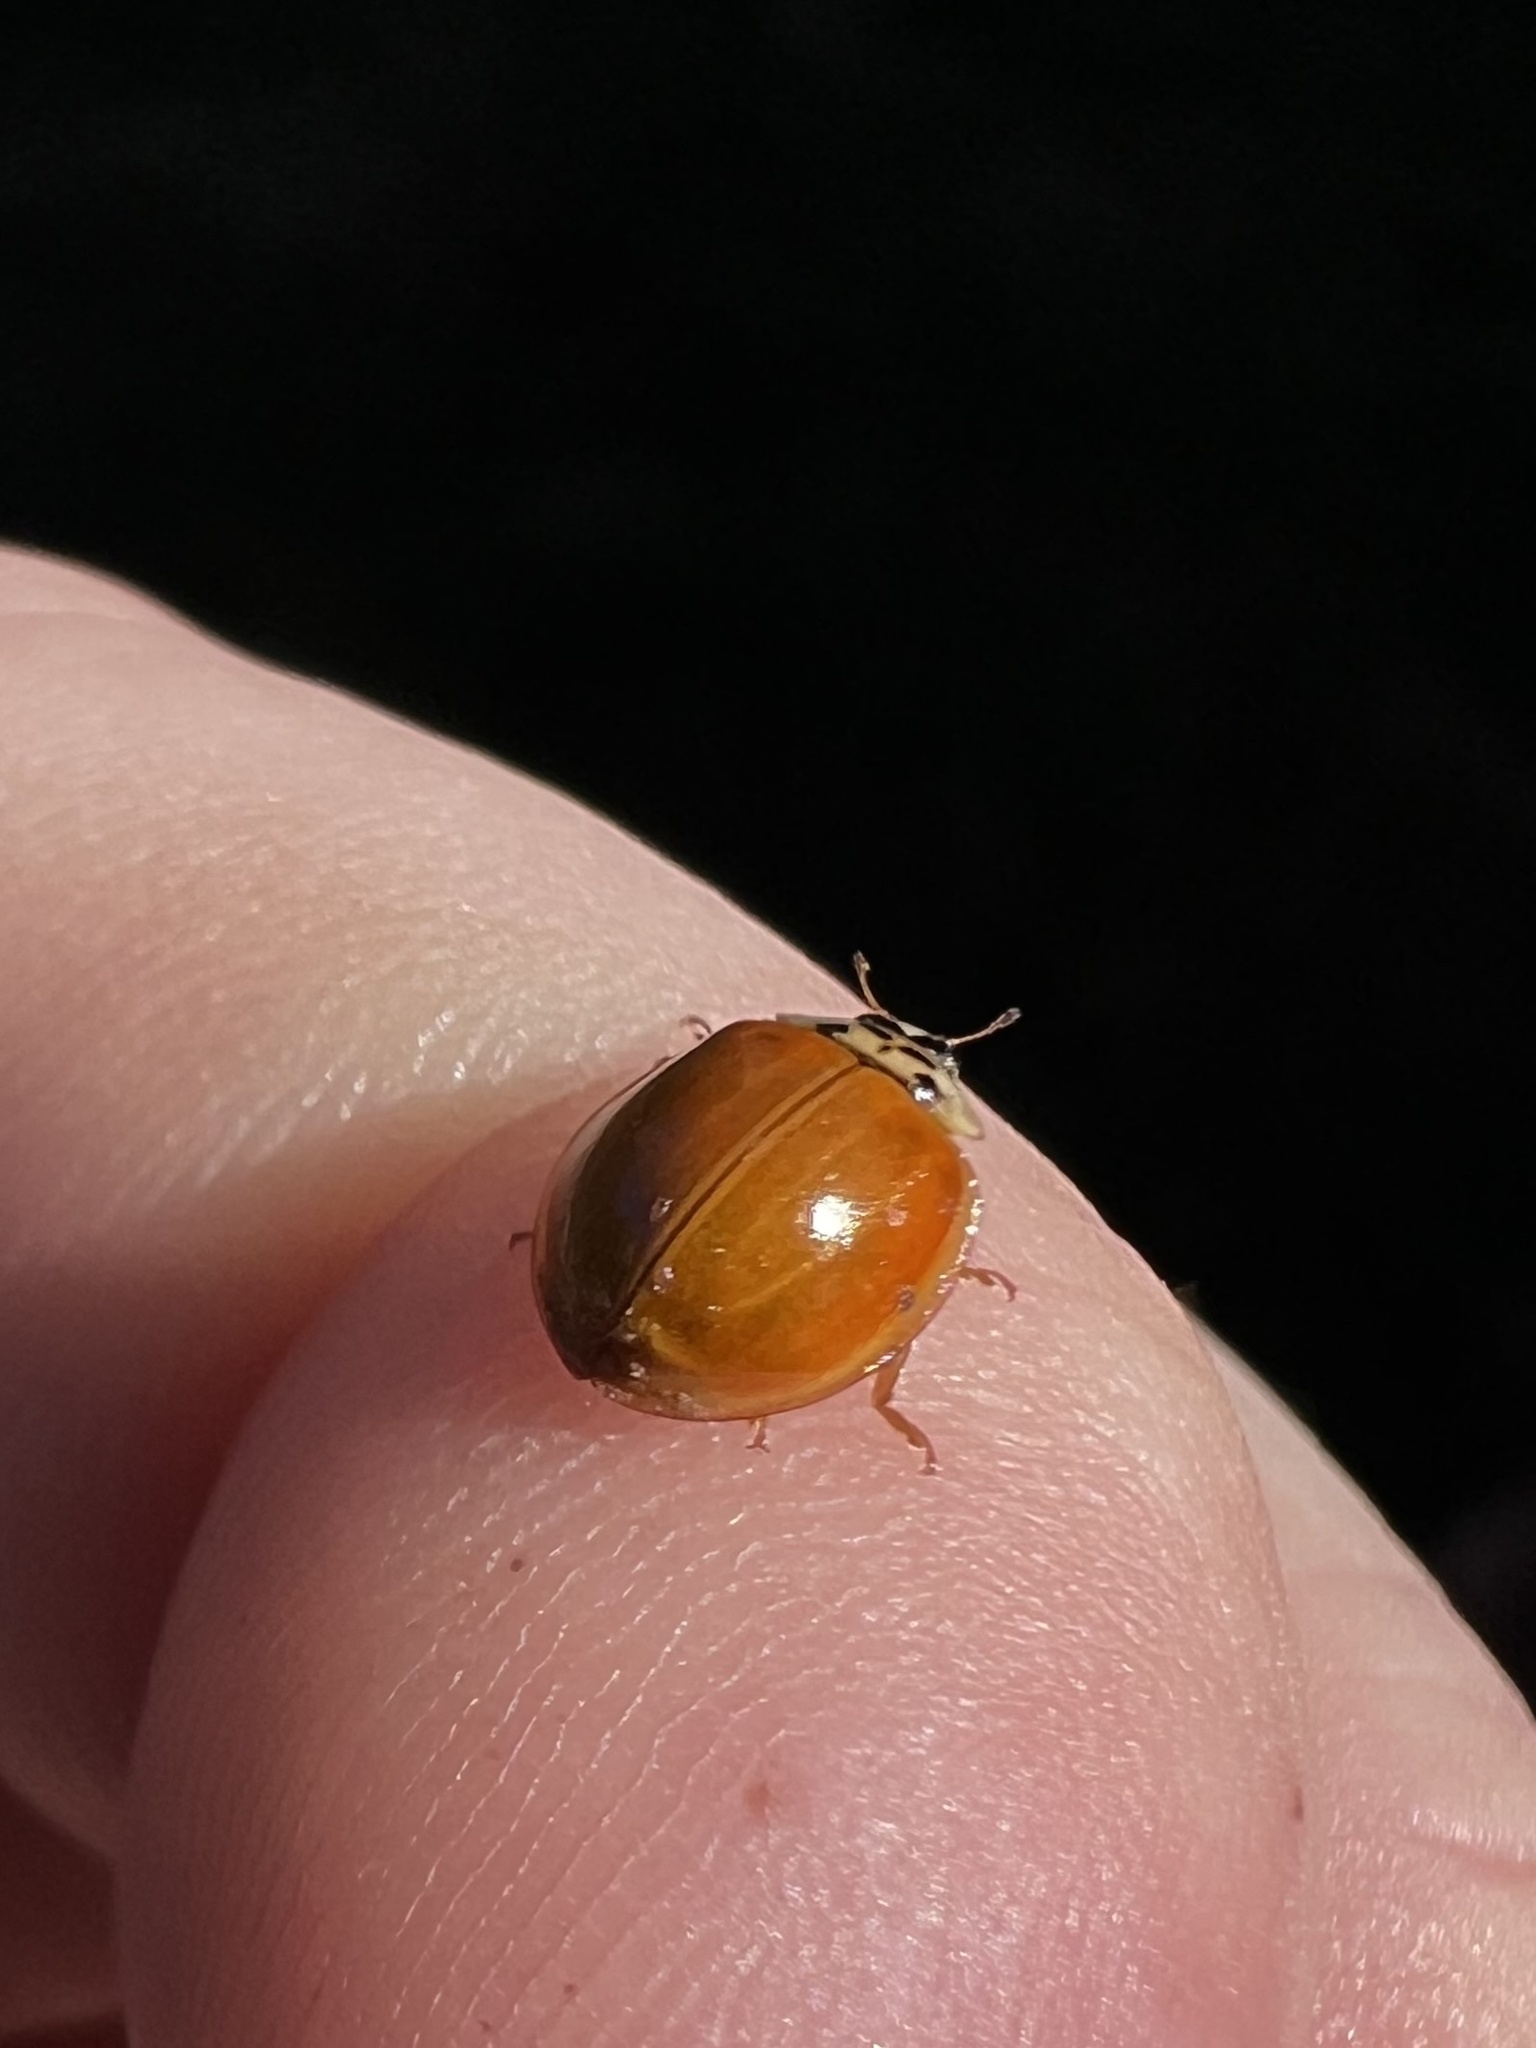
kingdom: Animalia
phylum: Arthropoda
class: Insecta
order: Coleoptera
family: Coccinellidae
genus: Harmonia
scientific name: Harmonia axyridis
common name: Harlequin ladybird
